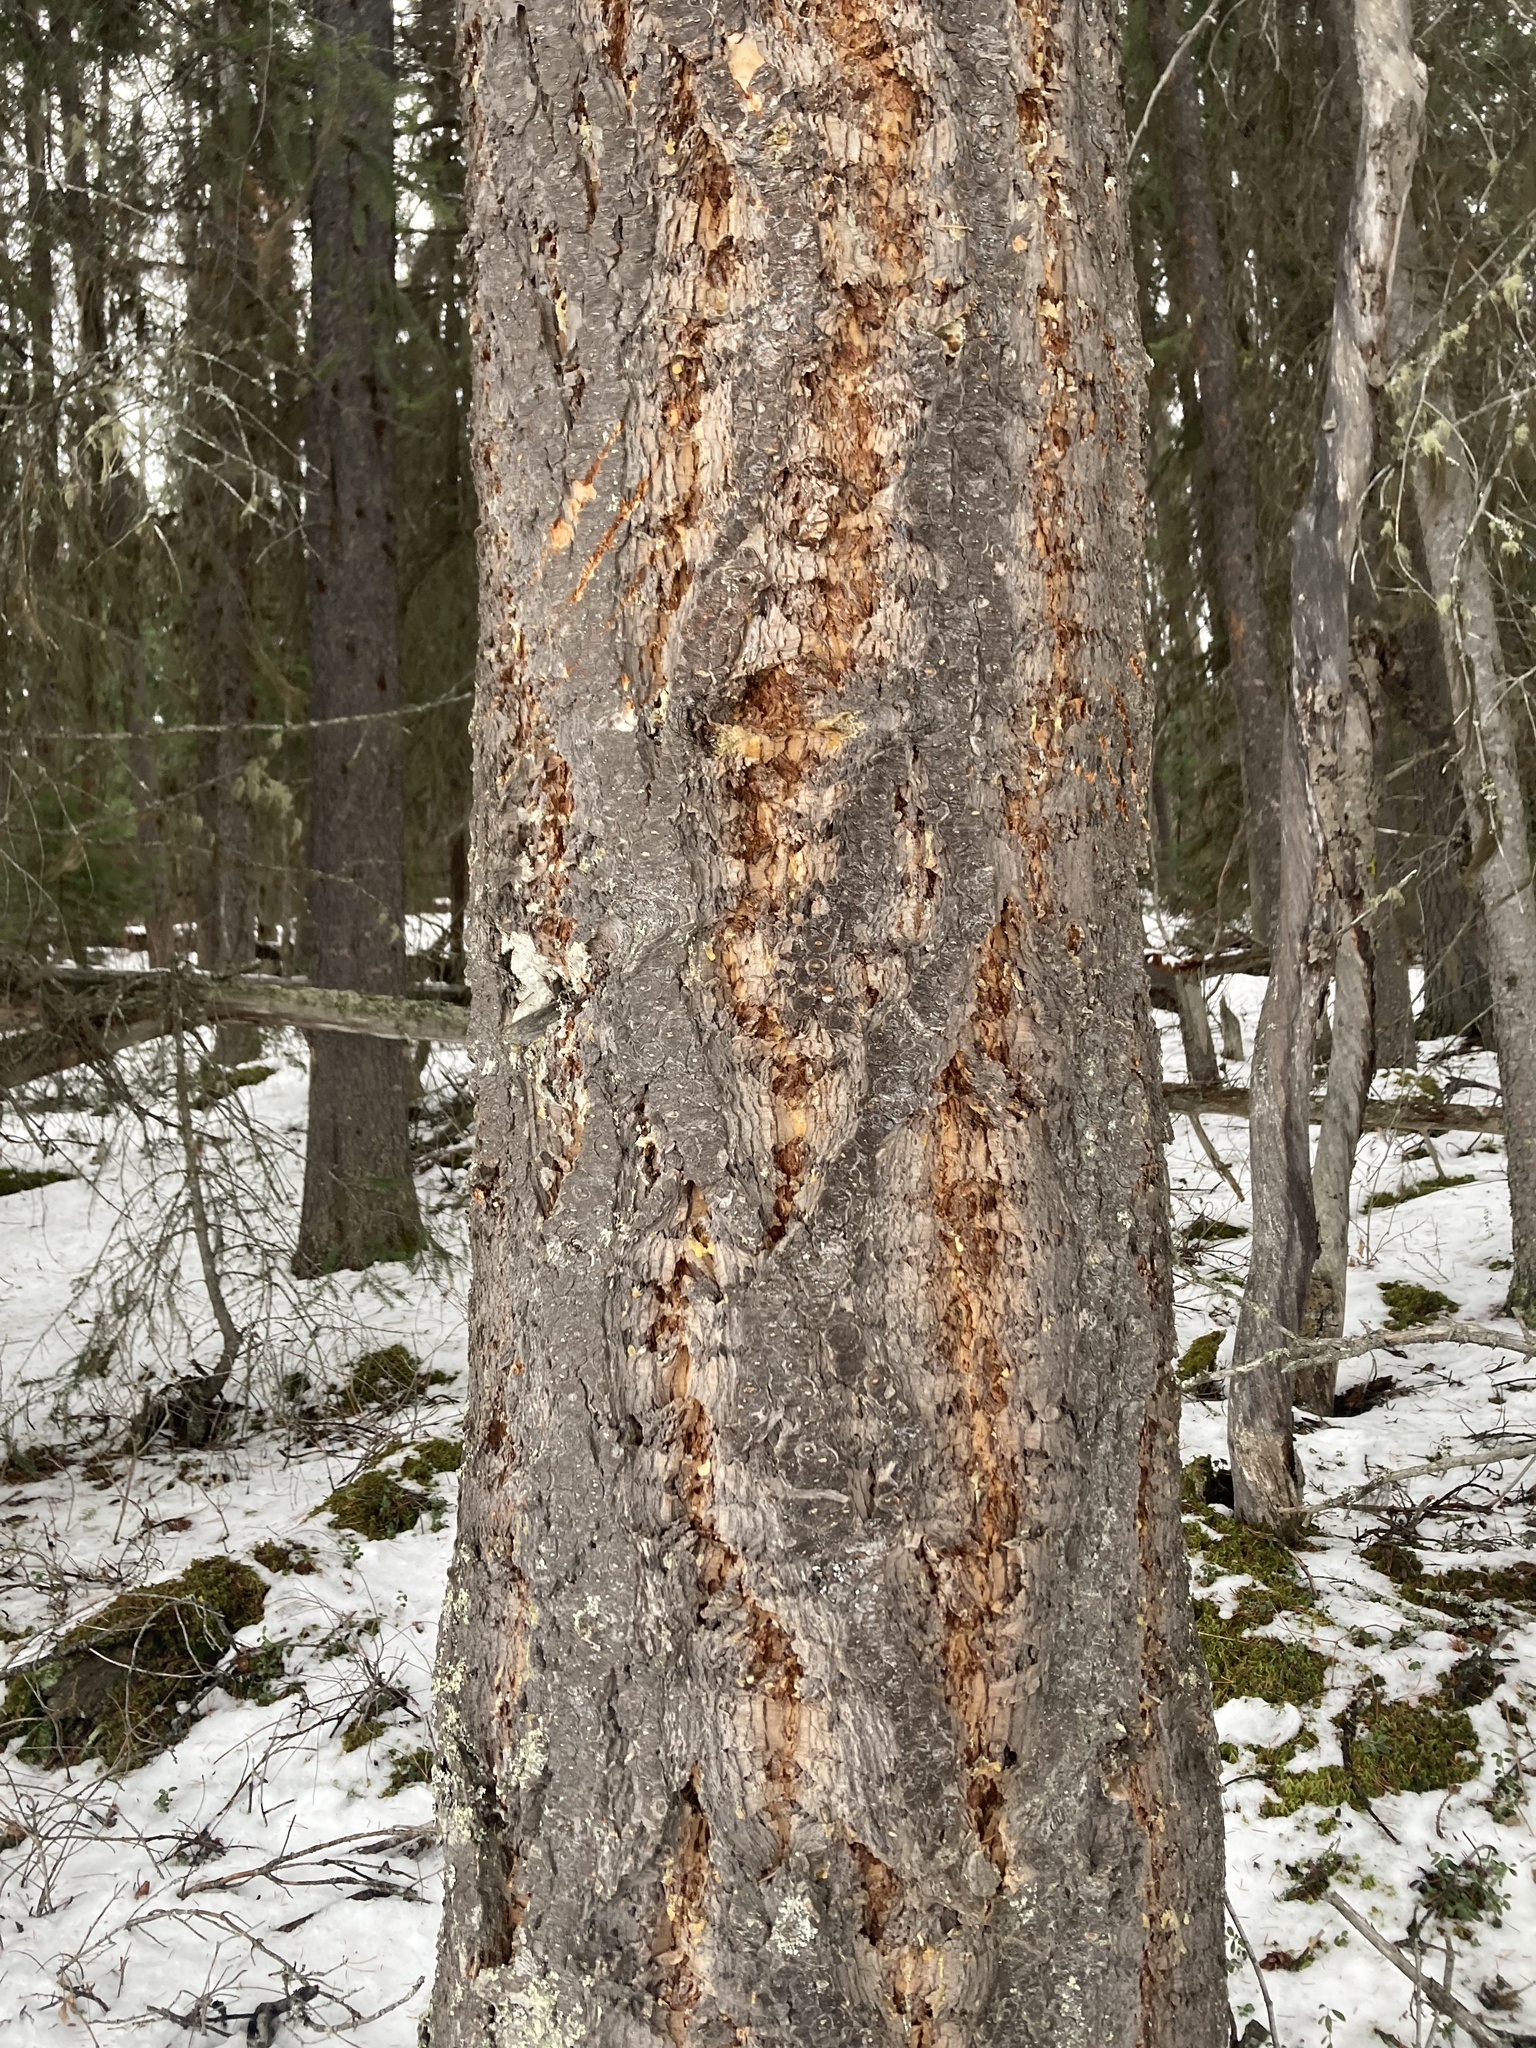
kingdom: Plantae
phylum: Tracheophyta
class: Pinopsida
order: Pinales
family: Pinaceae
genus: Pseudotsuga
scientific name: Pseudotsuga menziesii
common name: Douglas fir
